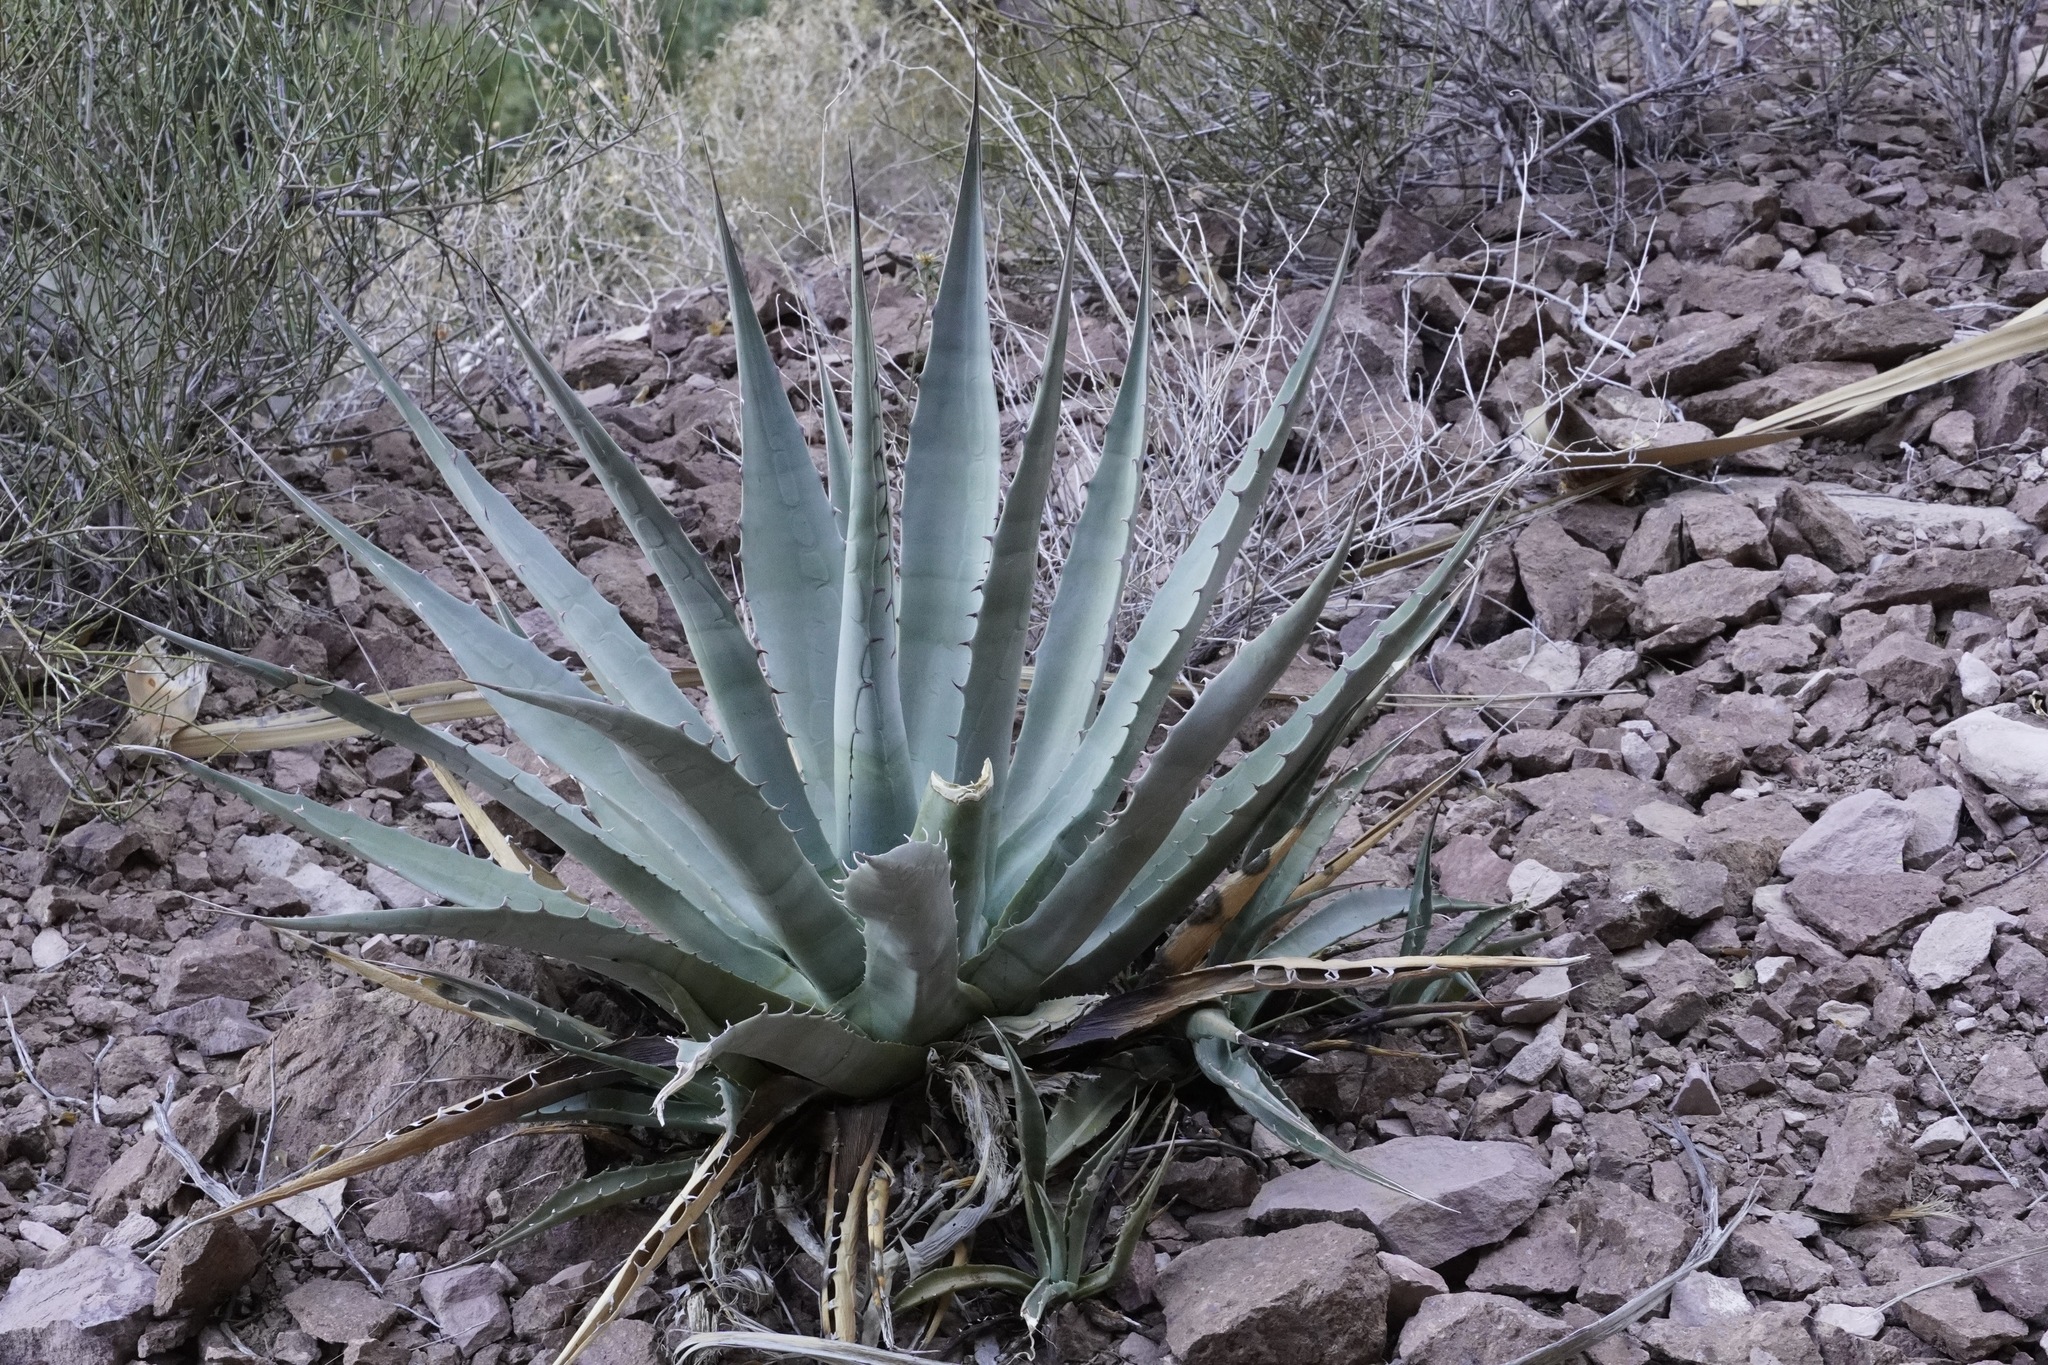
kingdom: Plantae
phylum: Tracheophyta
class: Liliopsida
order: Asparagales
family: Asparagaceae
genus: Agave
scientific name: Agave simplex
